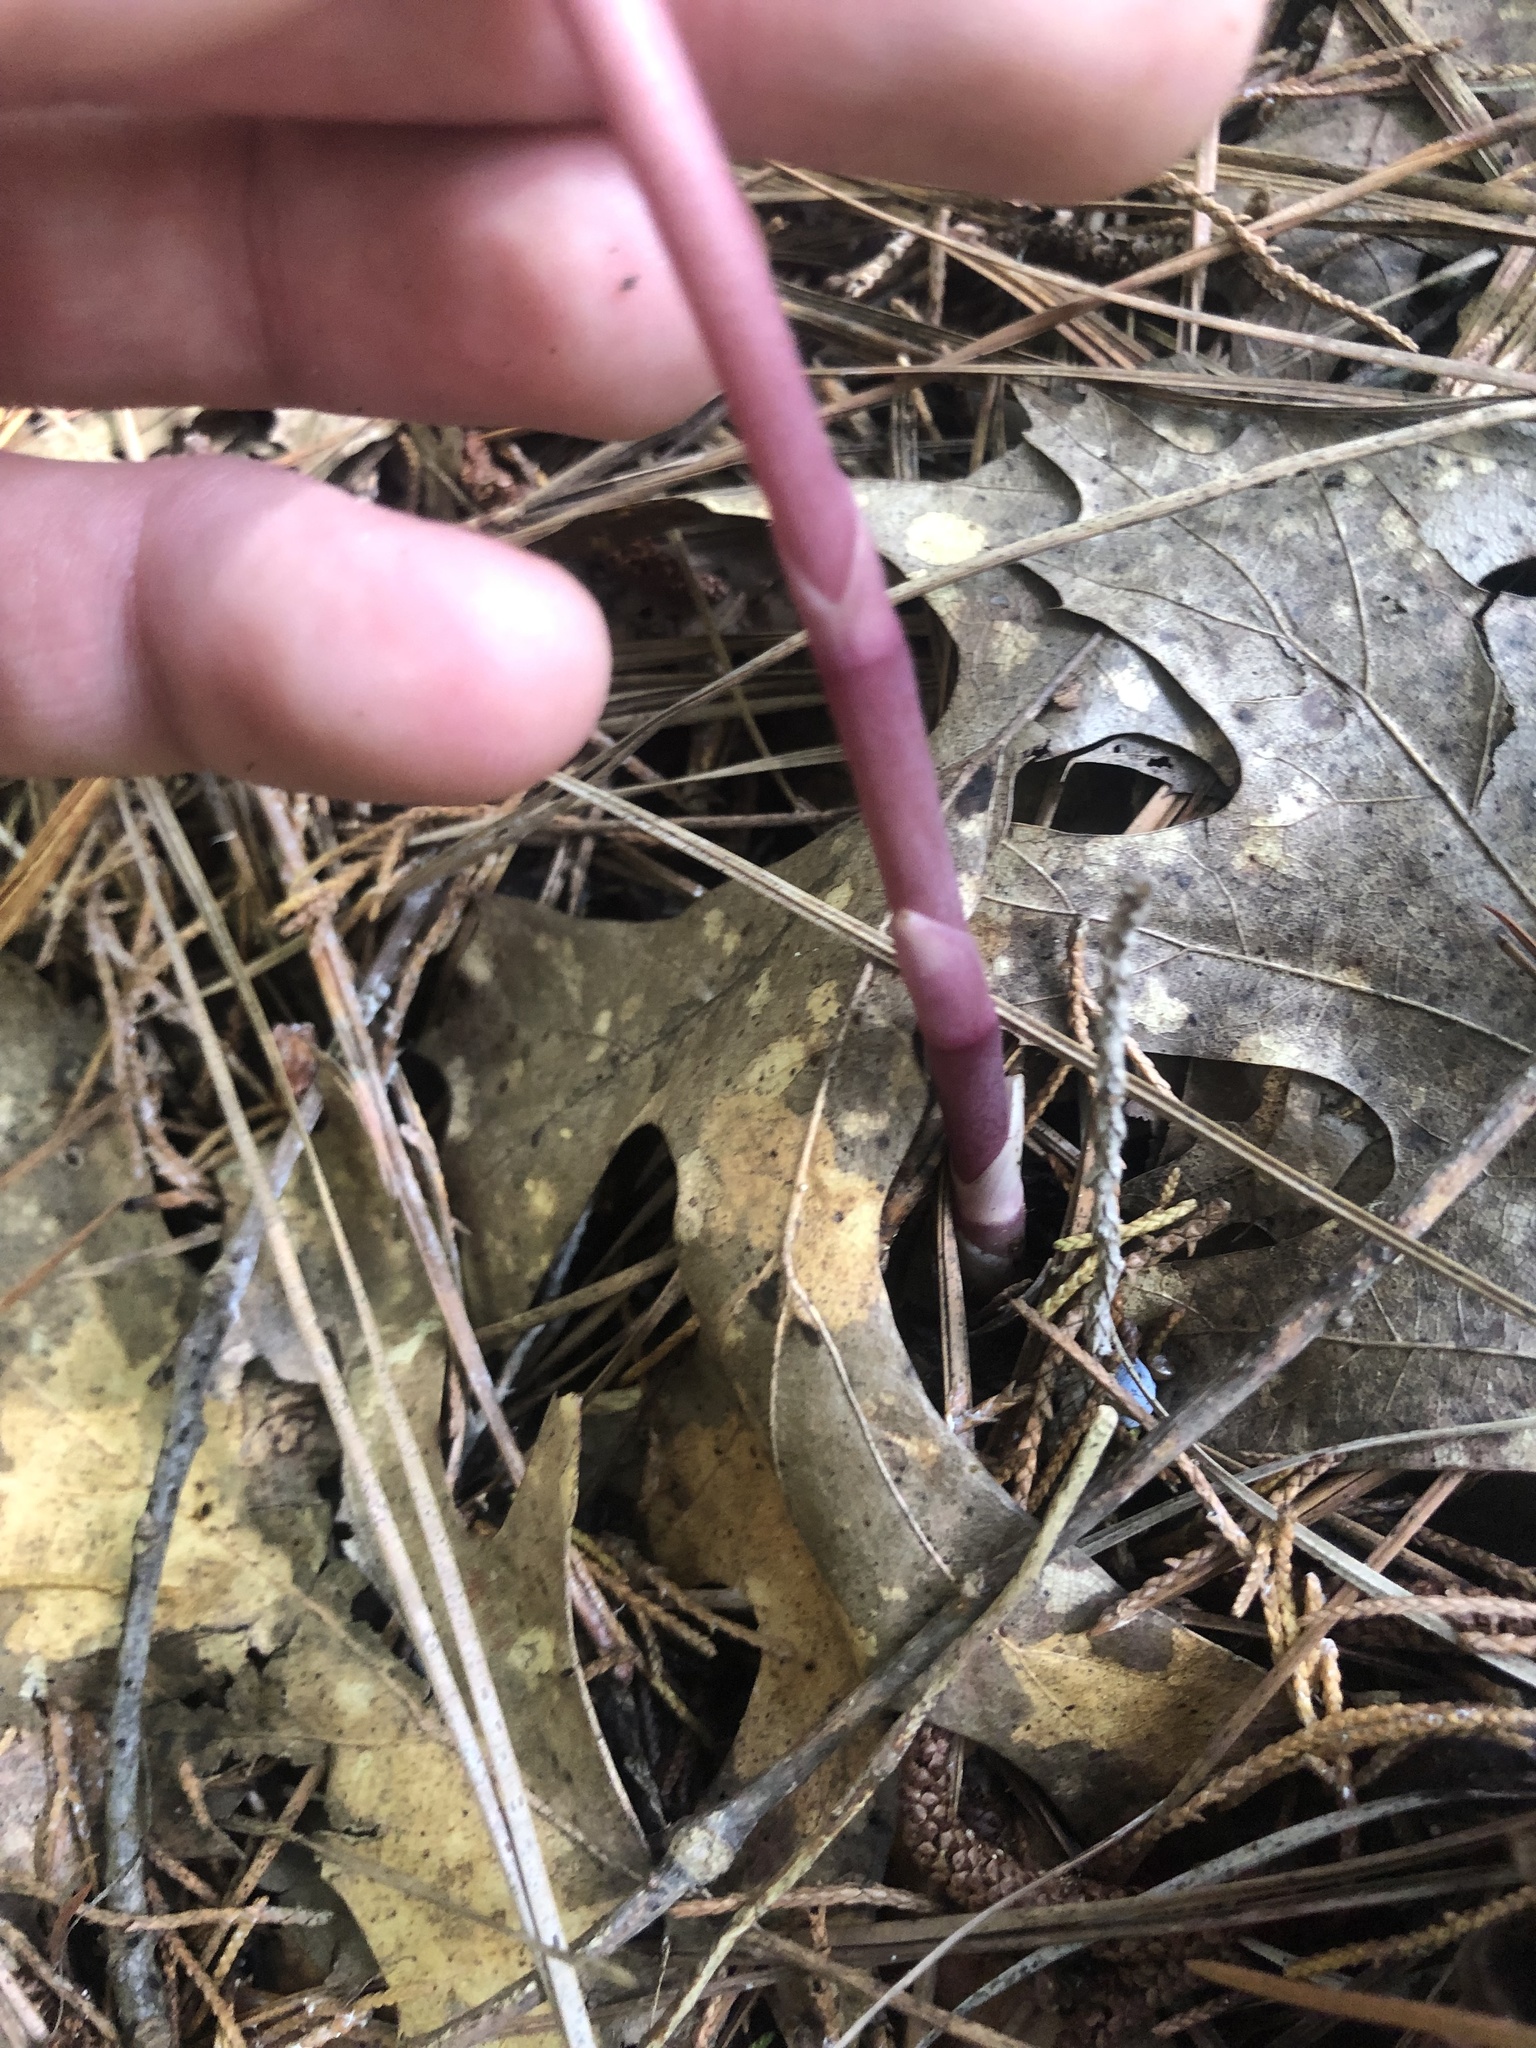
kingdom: Plantae
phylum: Tracheophyta
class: Liliopsida
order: Asparagales
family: Orchidaceae
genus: Bletia
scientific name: Bletia spicata
